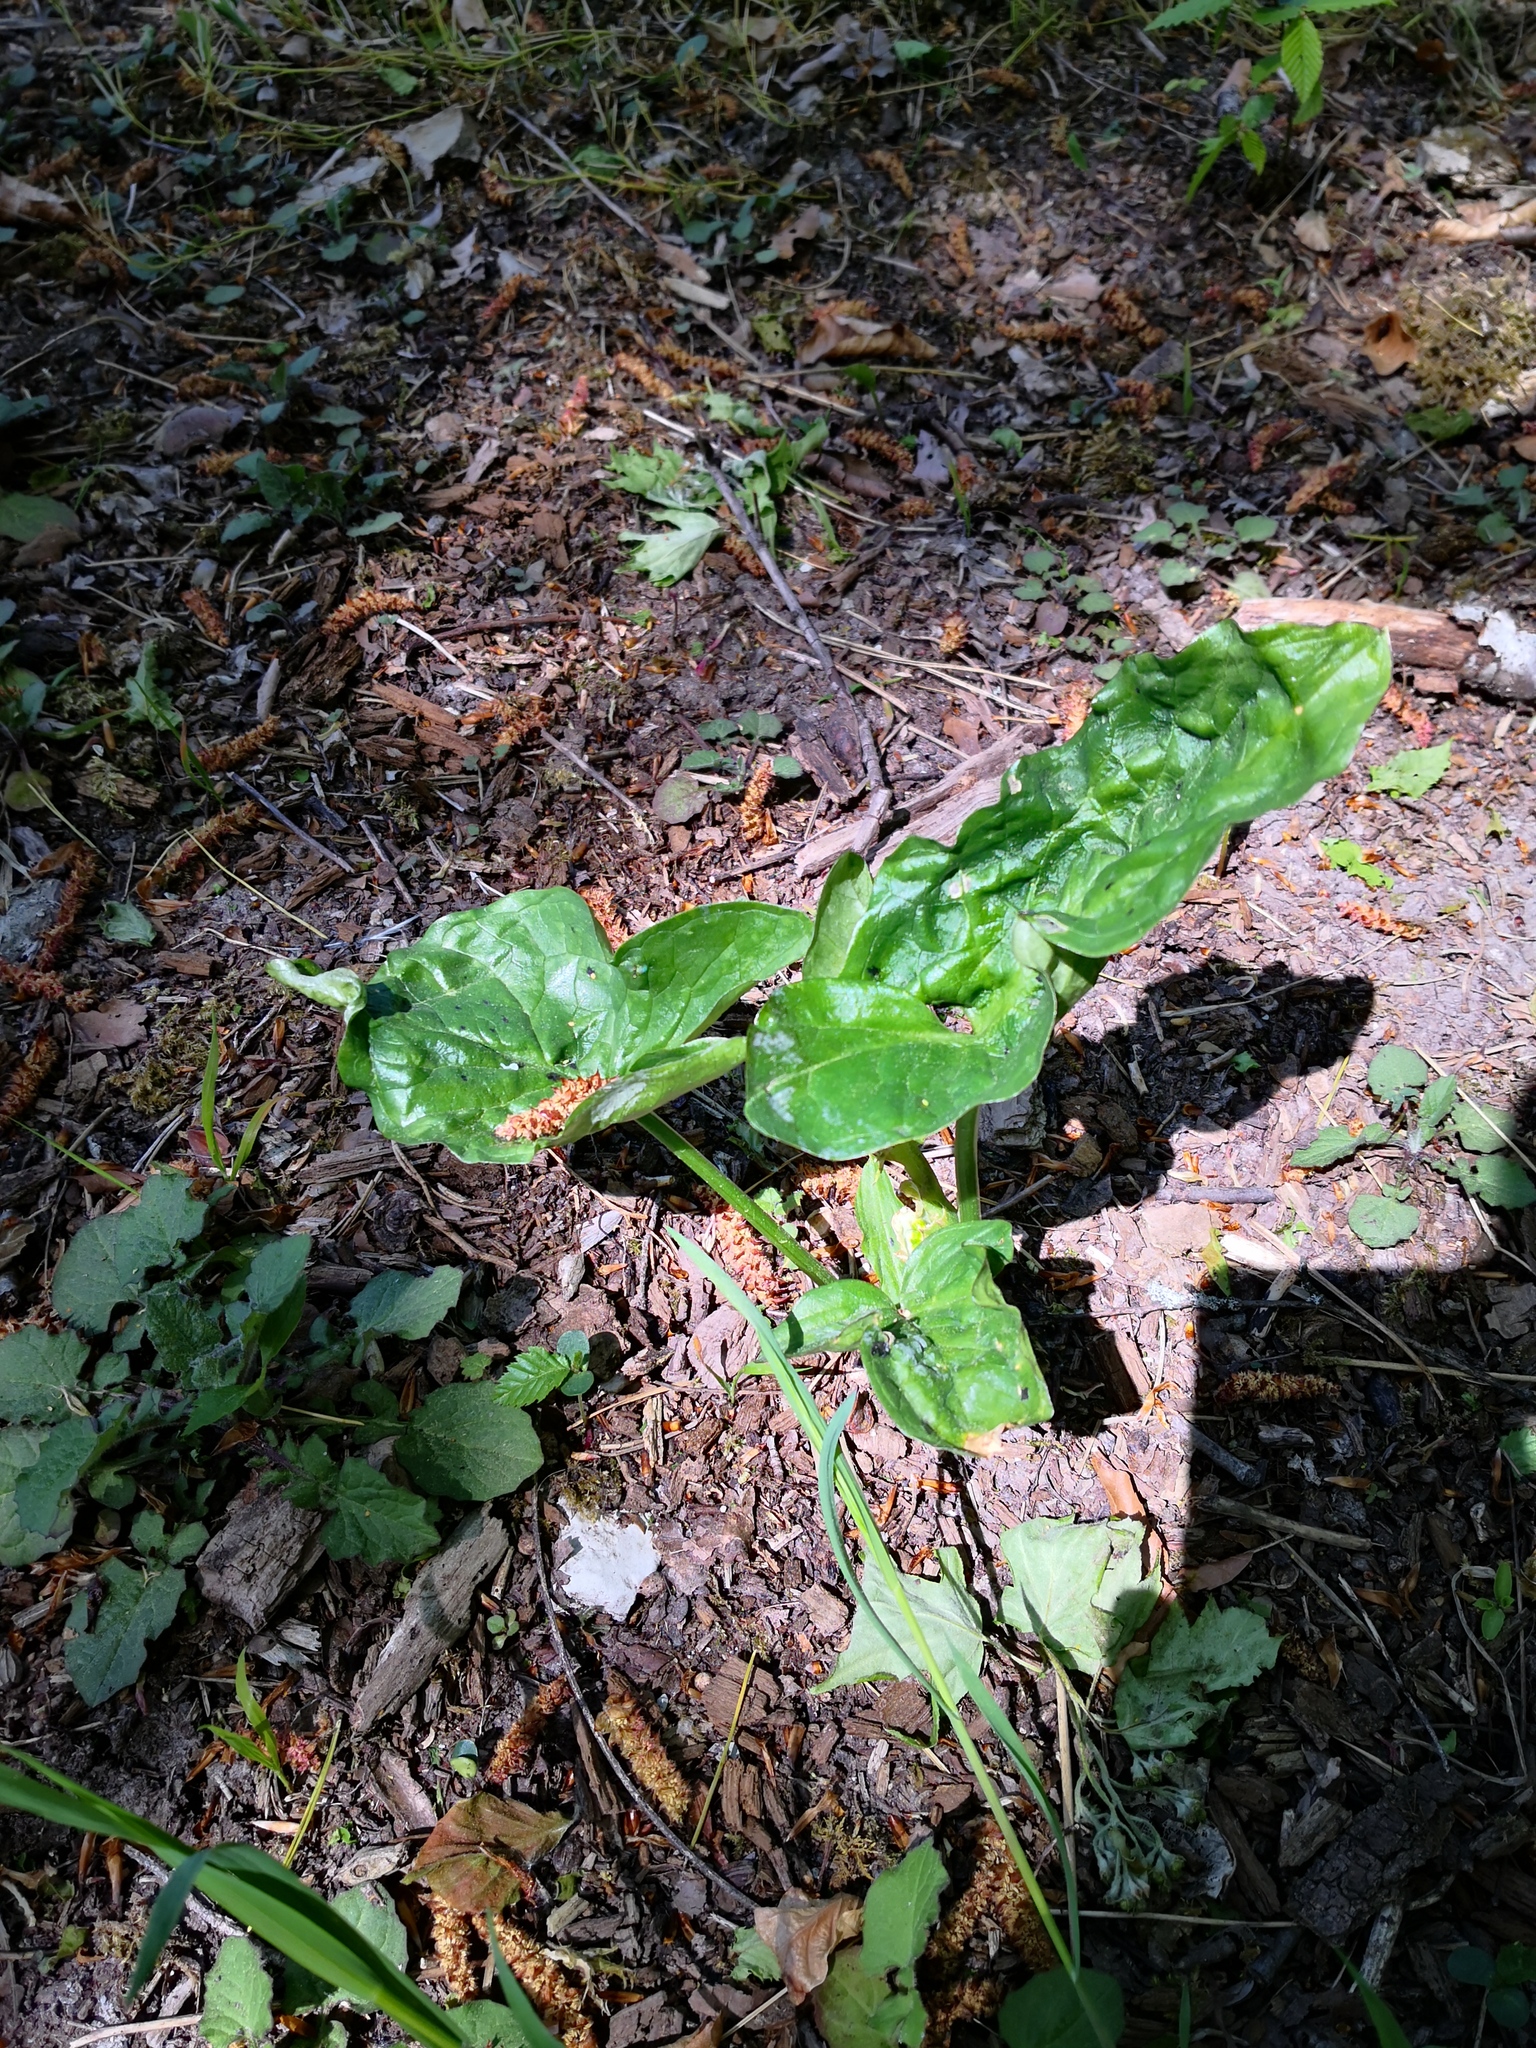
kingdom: Plantae
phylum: Tracheophyta
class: Liliopsida
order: Alismatales
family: Araceae
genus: Arum
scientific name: Arum maculatum
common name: Lords-and-ladies
